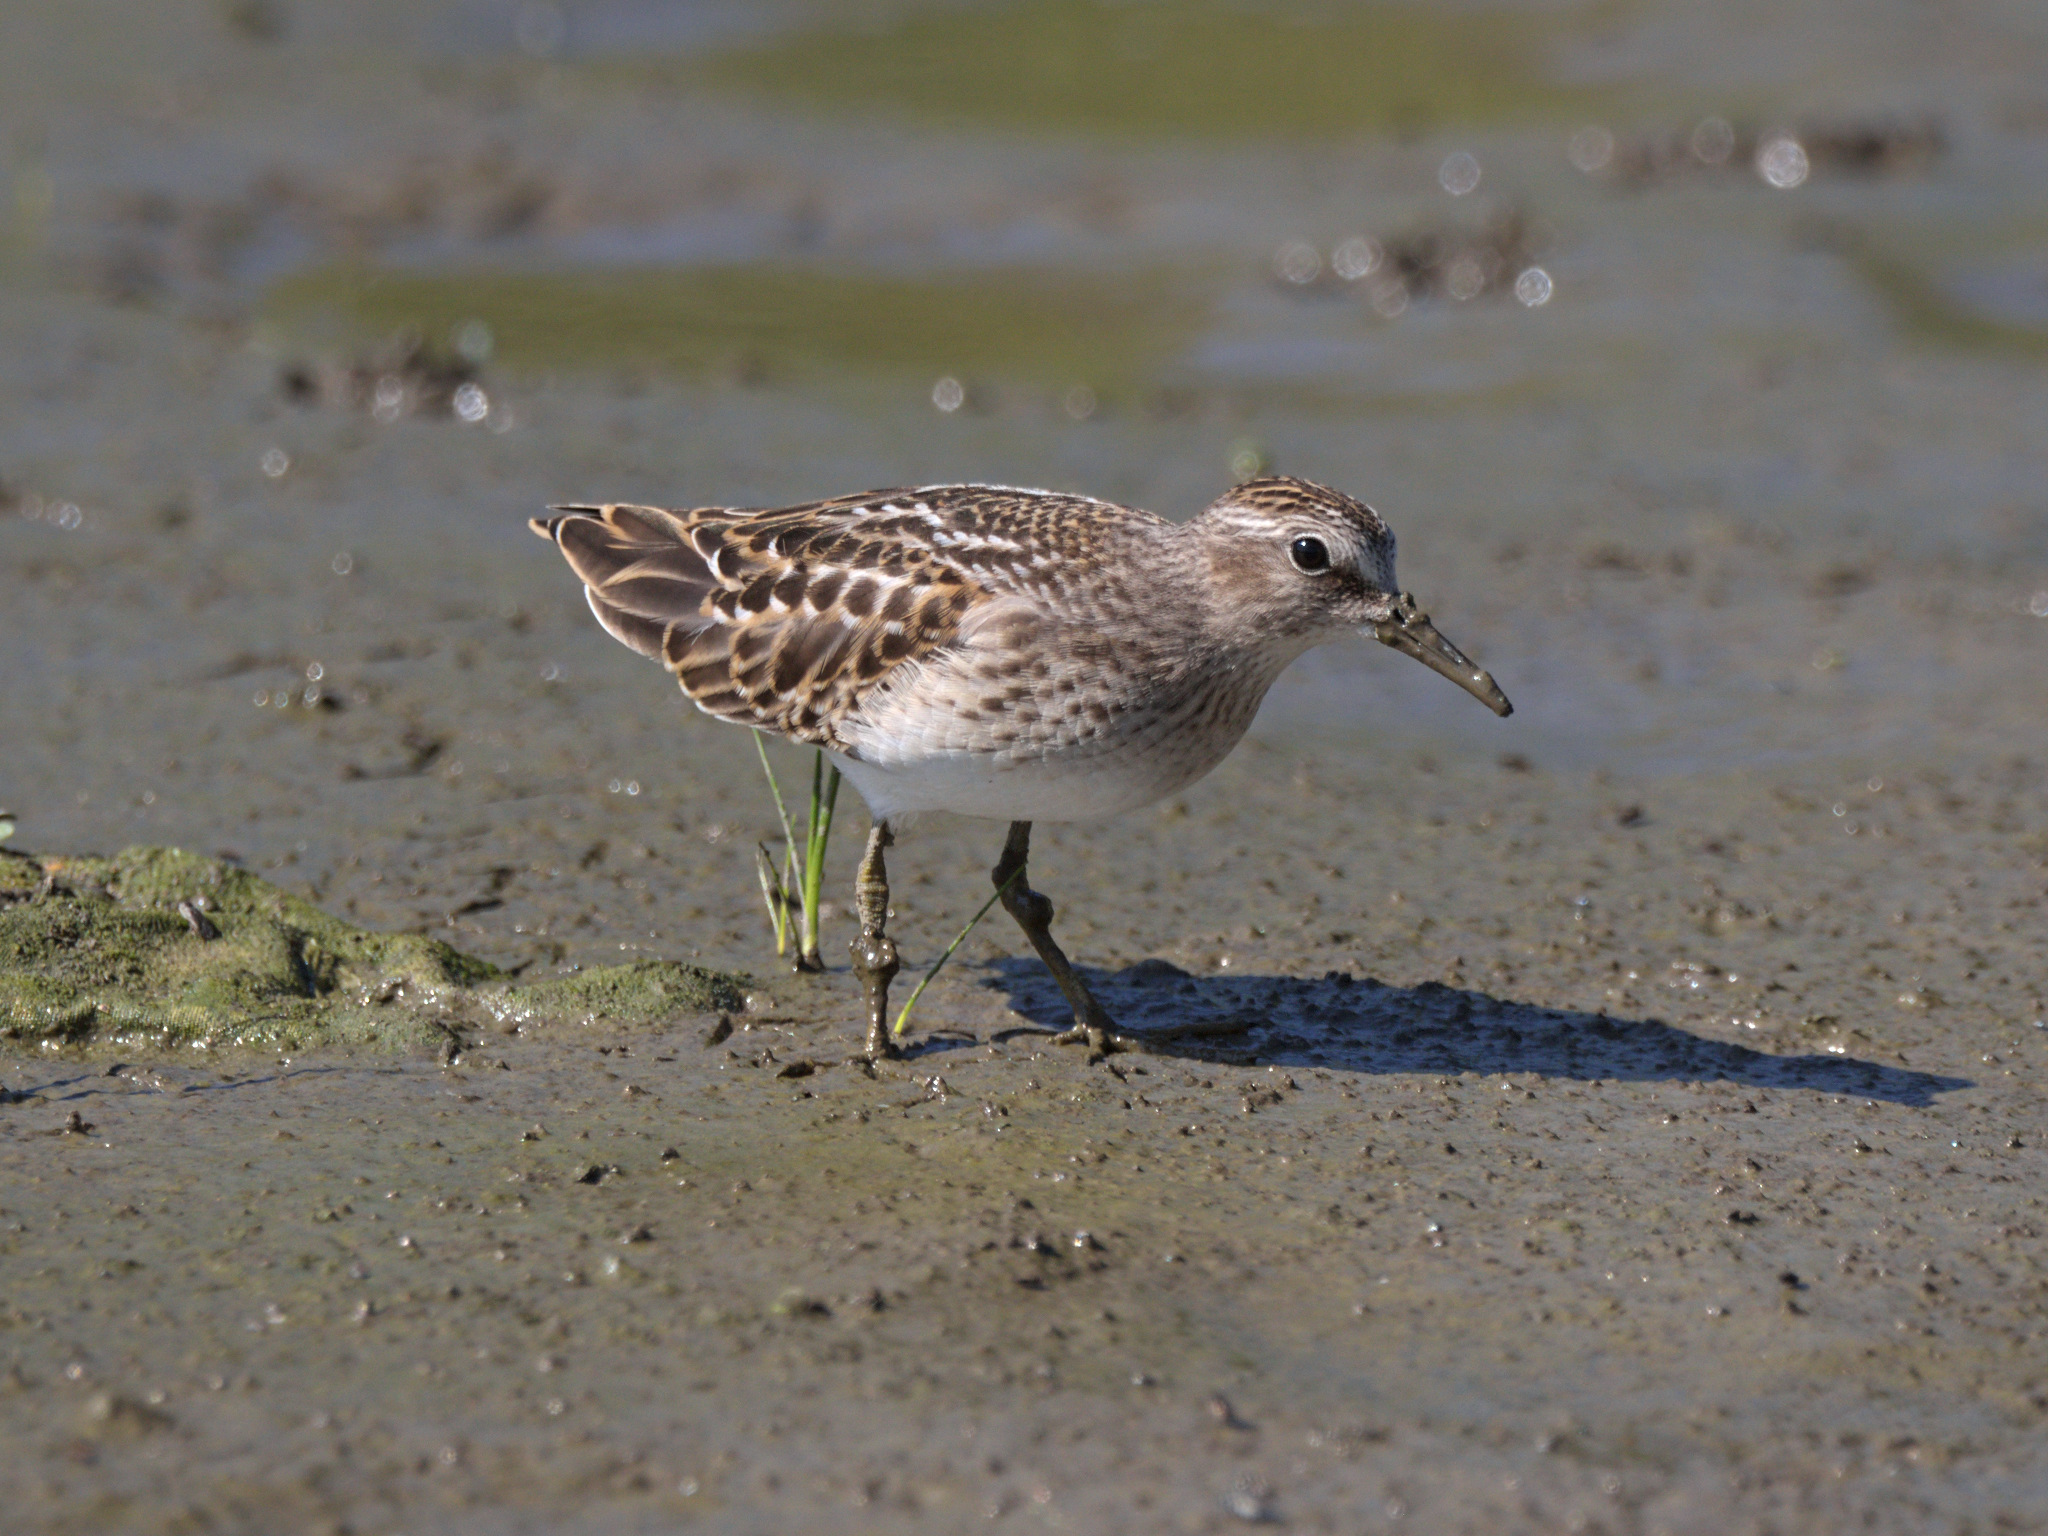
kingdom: Animalia
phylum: Chordata
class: Aves
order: Charadriiformes
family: Scolopacidae
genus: Calidris
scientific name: Calidris minutilla
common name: Least sandpiper
